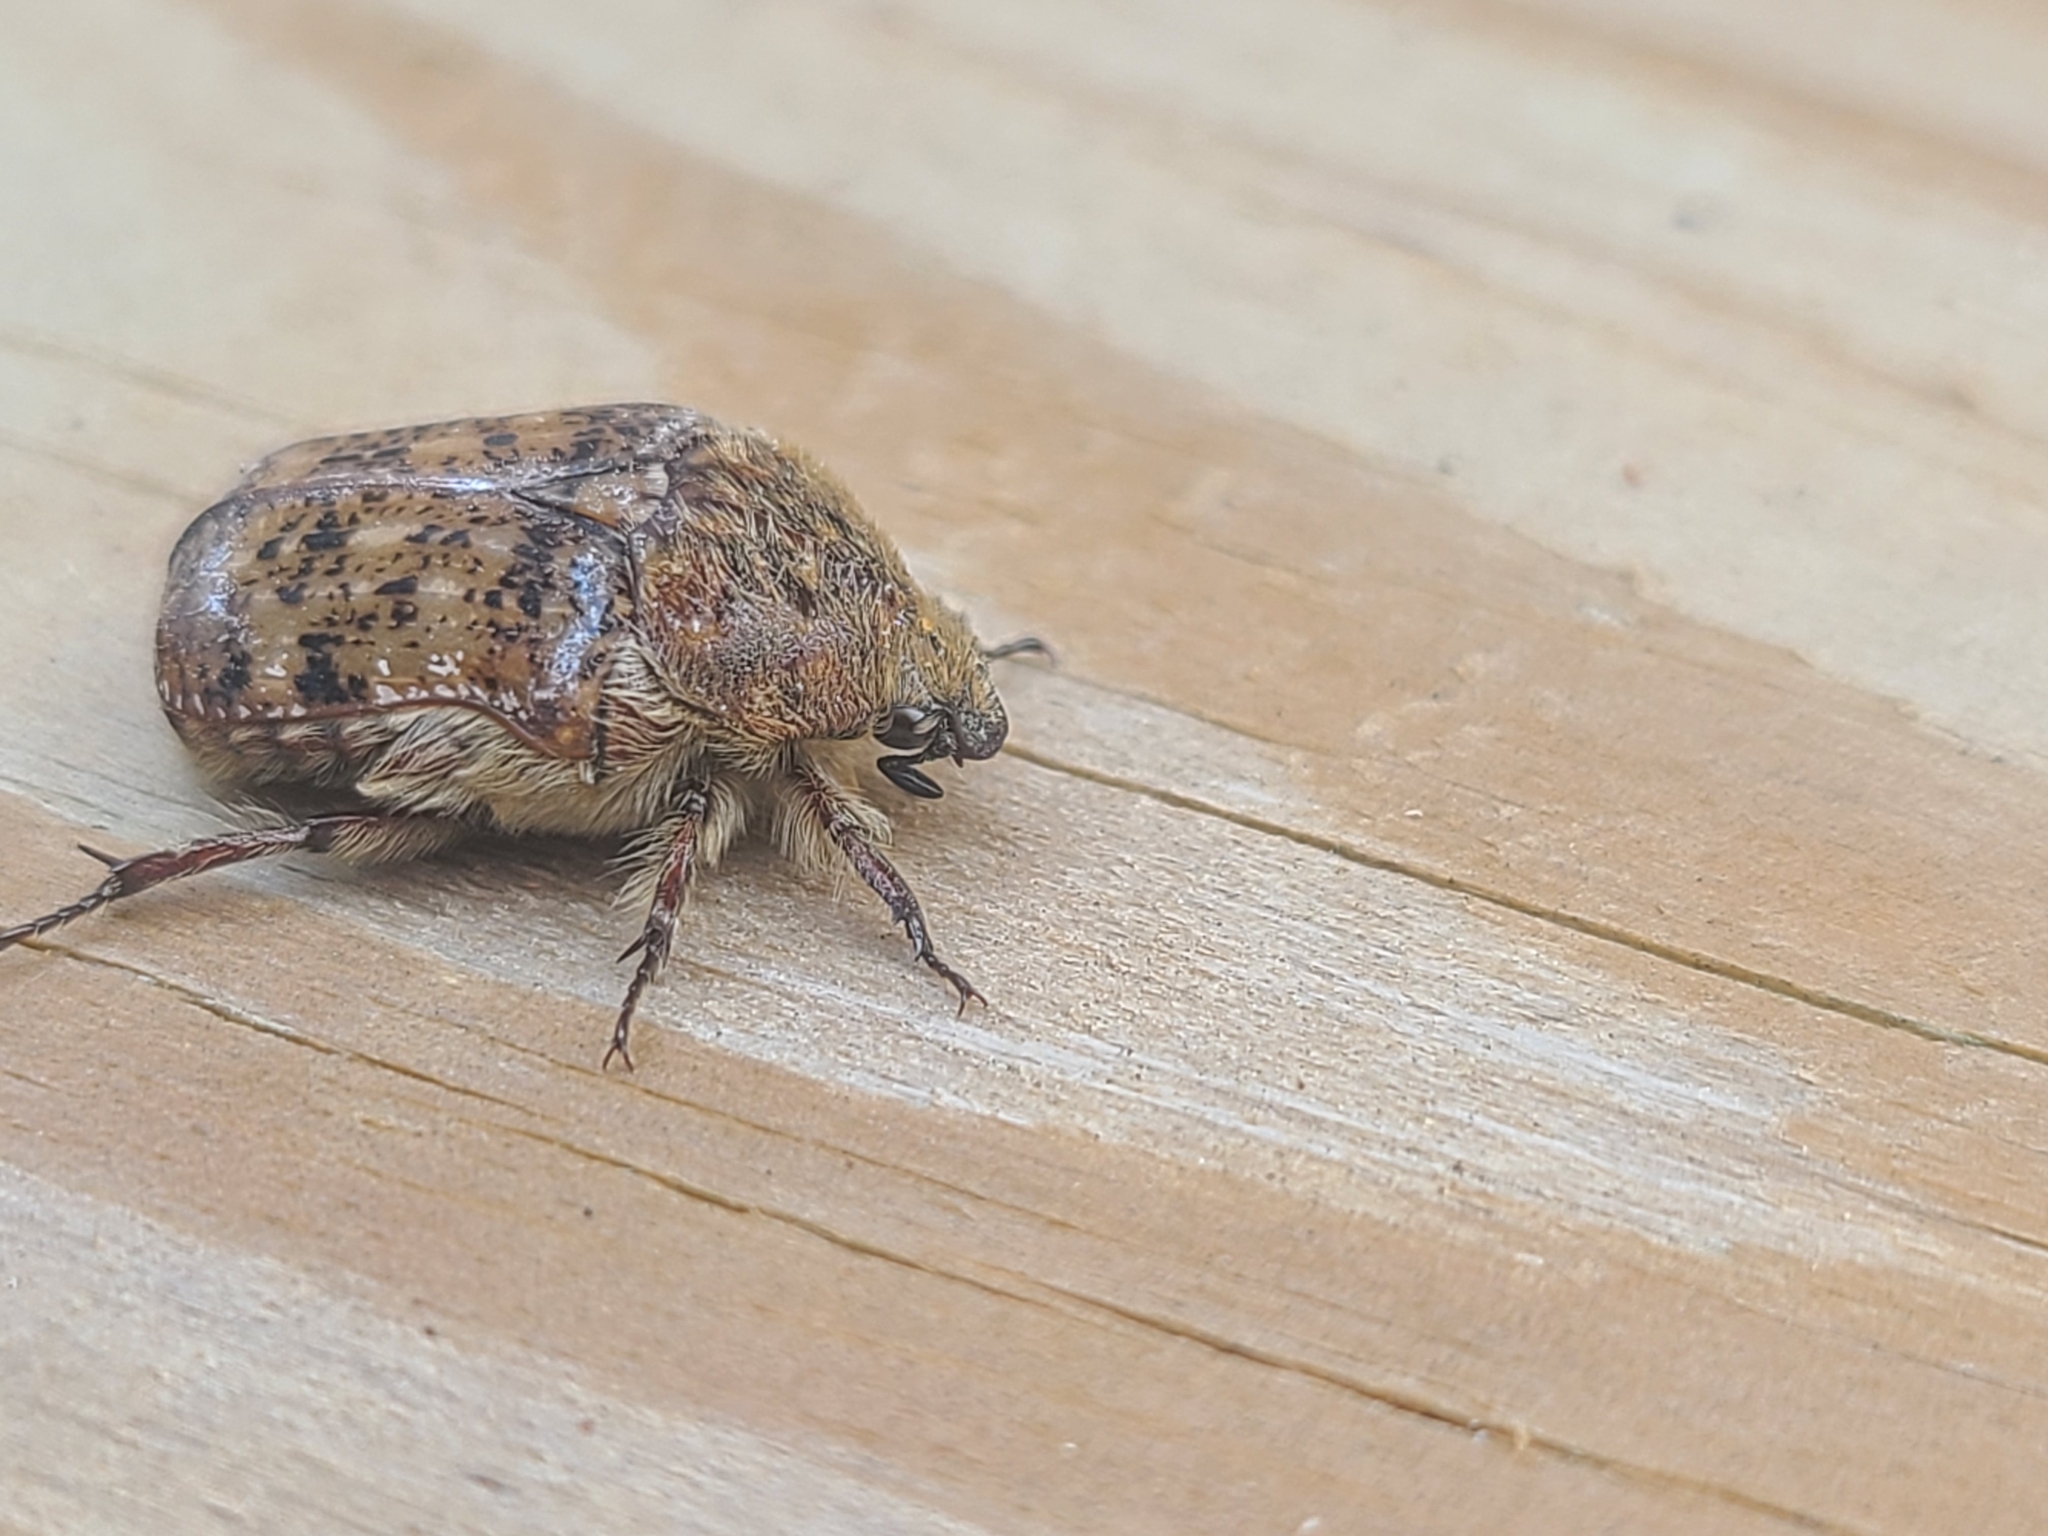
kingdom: Animalia
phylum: Arthropoda
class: Insecta
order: Coleoptera
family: Scarabaeidae
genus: Euphoria
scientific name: Euphoria inda
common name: Bumble flower beetle
